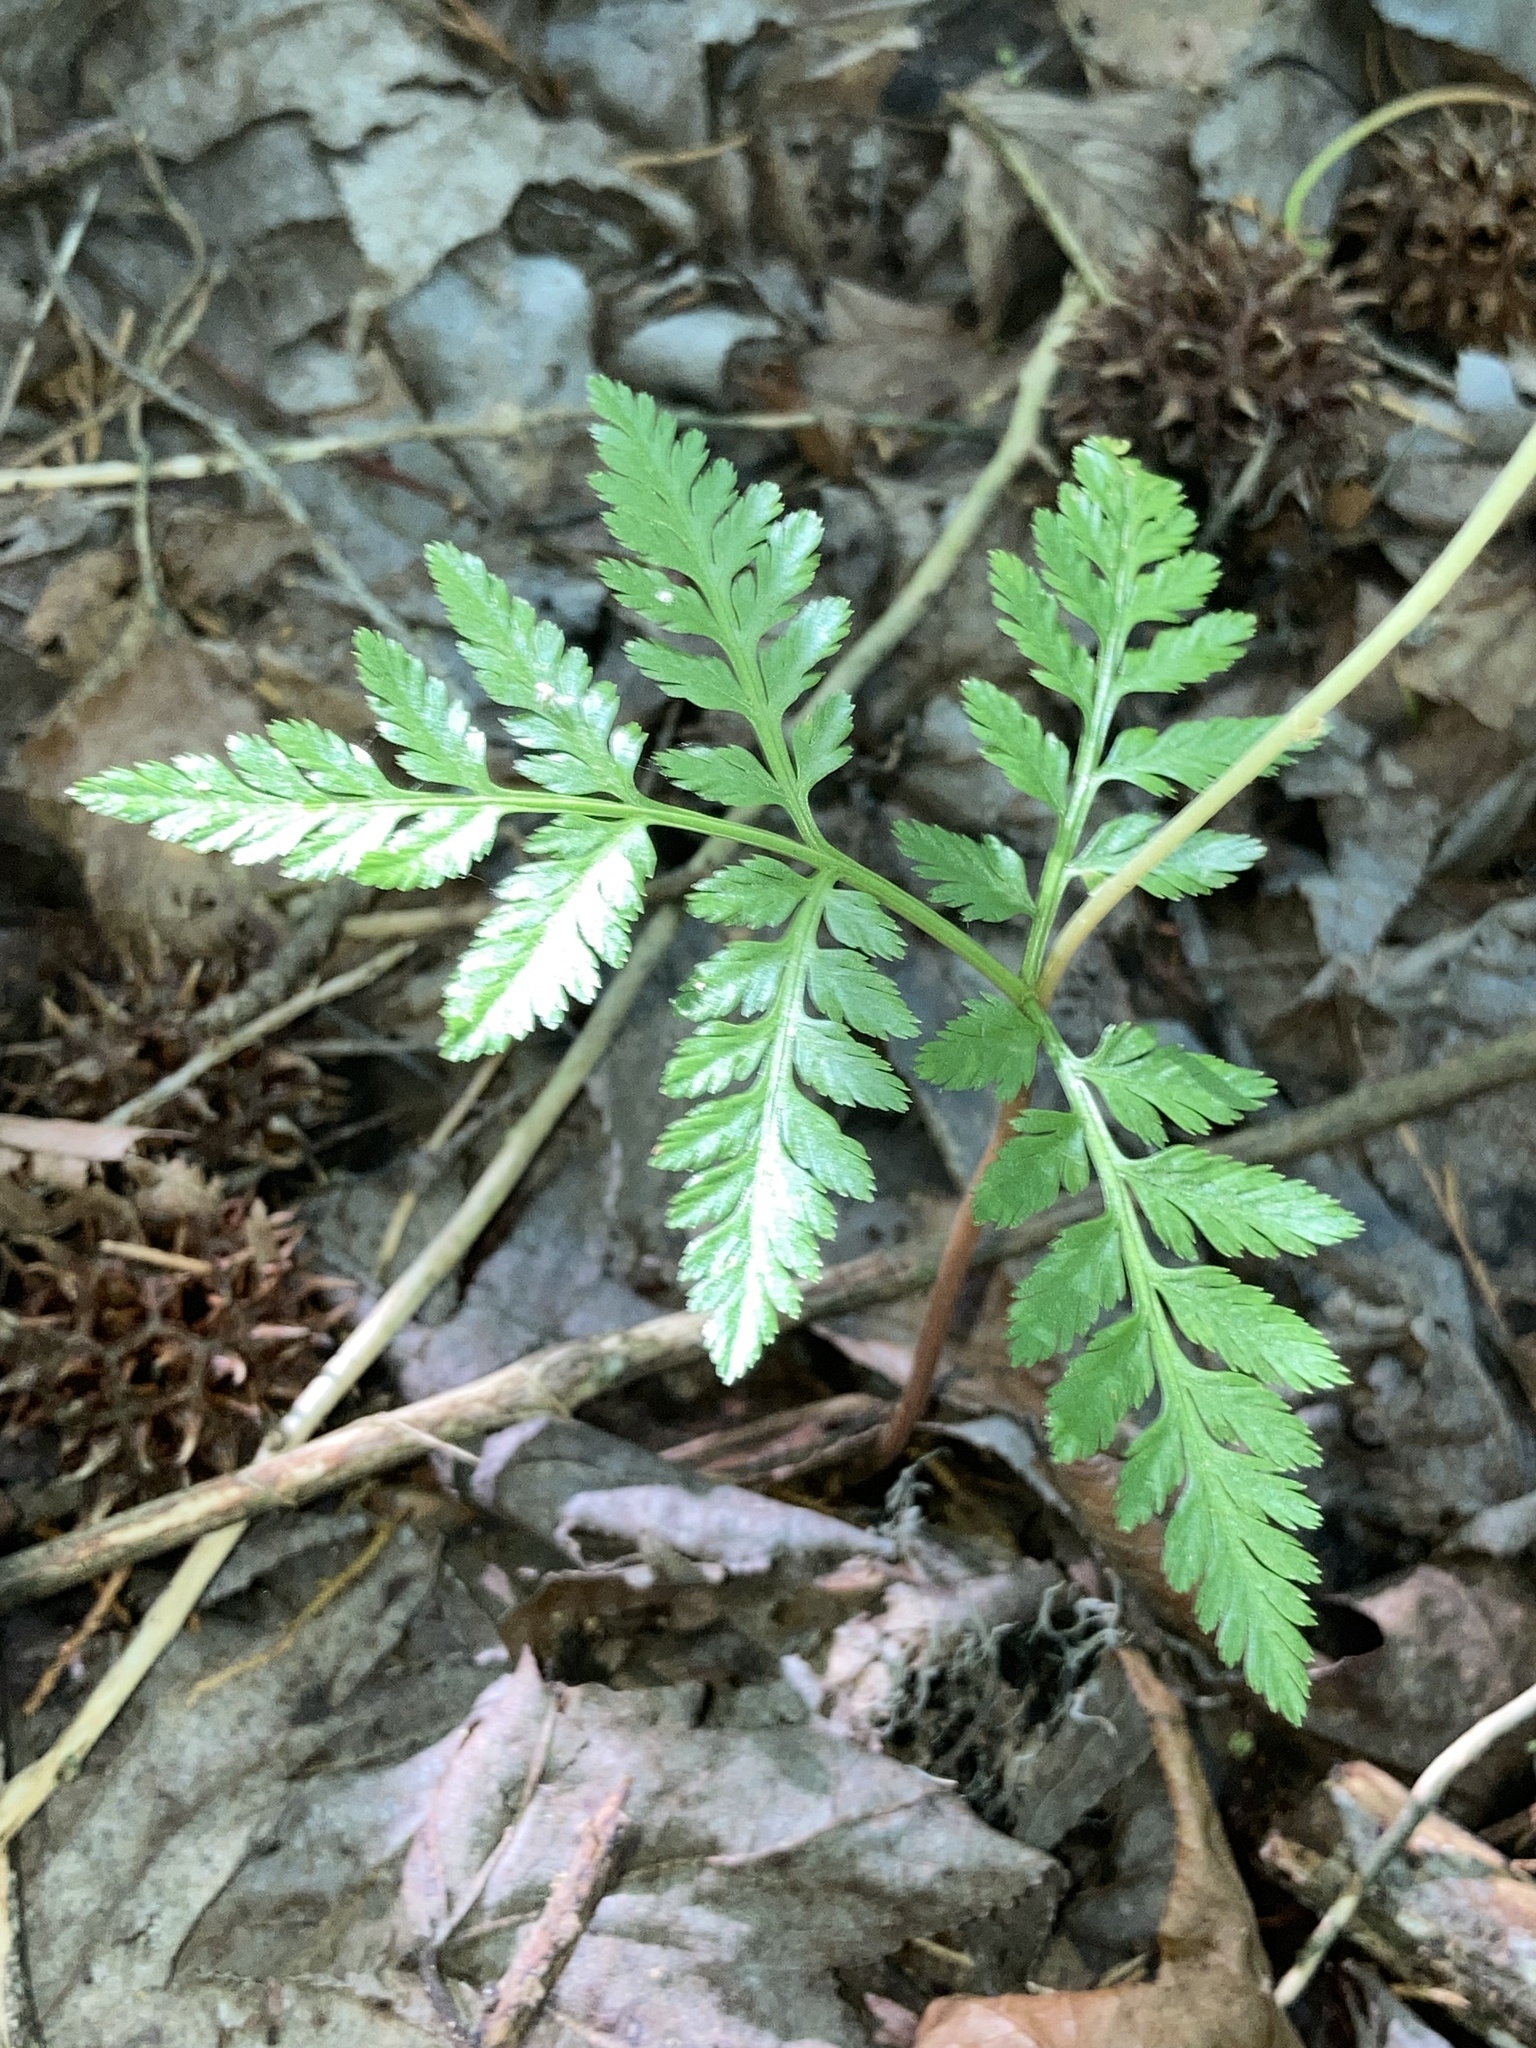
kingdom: Plantae
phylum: Tracheophyta
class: Polypodiopsida
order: Ophioglossales
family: Ophioglossaceae
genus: Botrypus
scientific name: Botrypus virginianus
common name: Common grapefern
